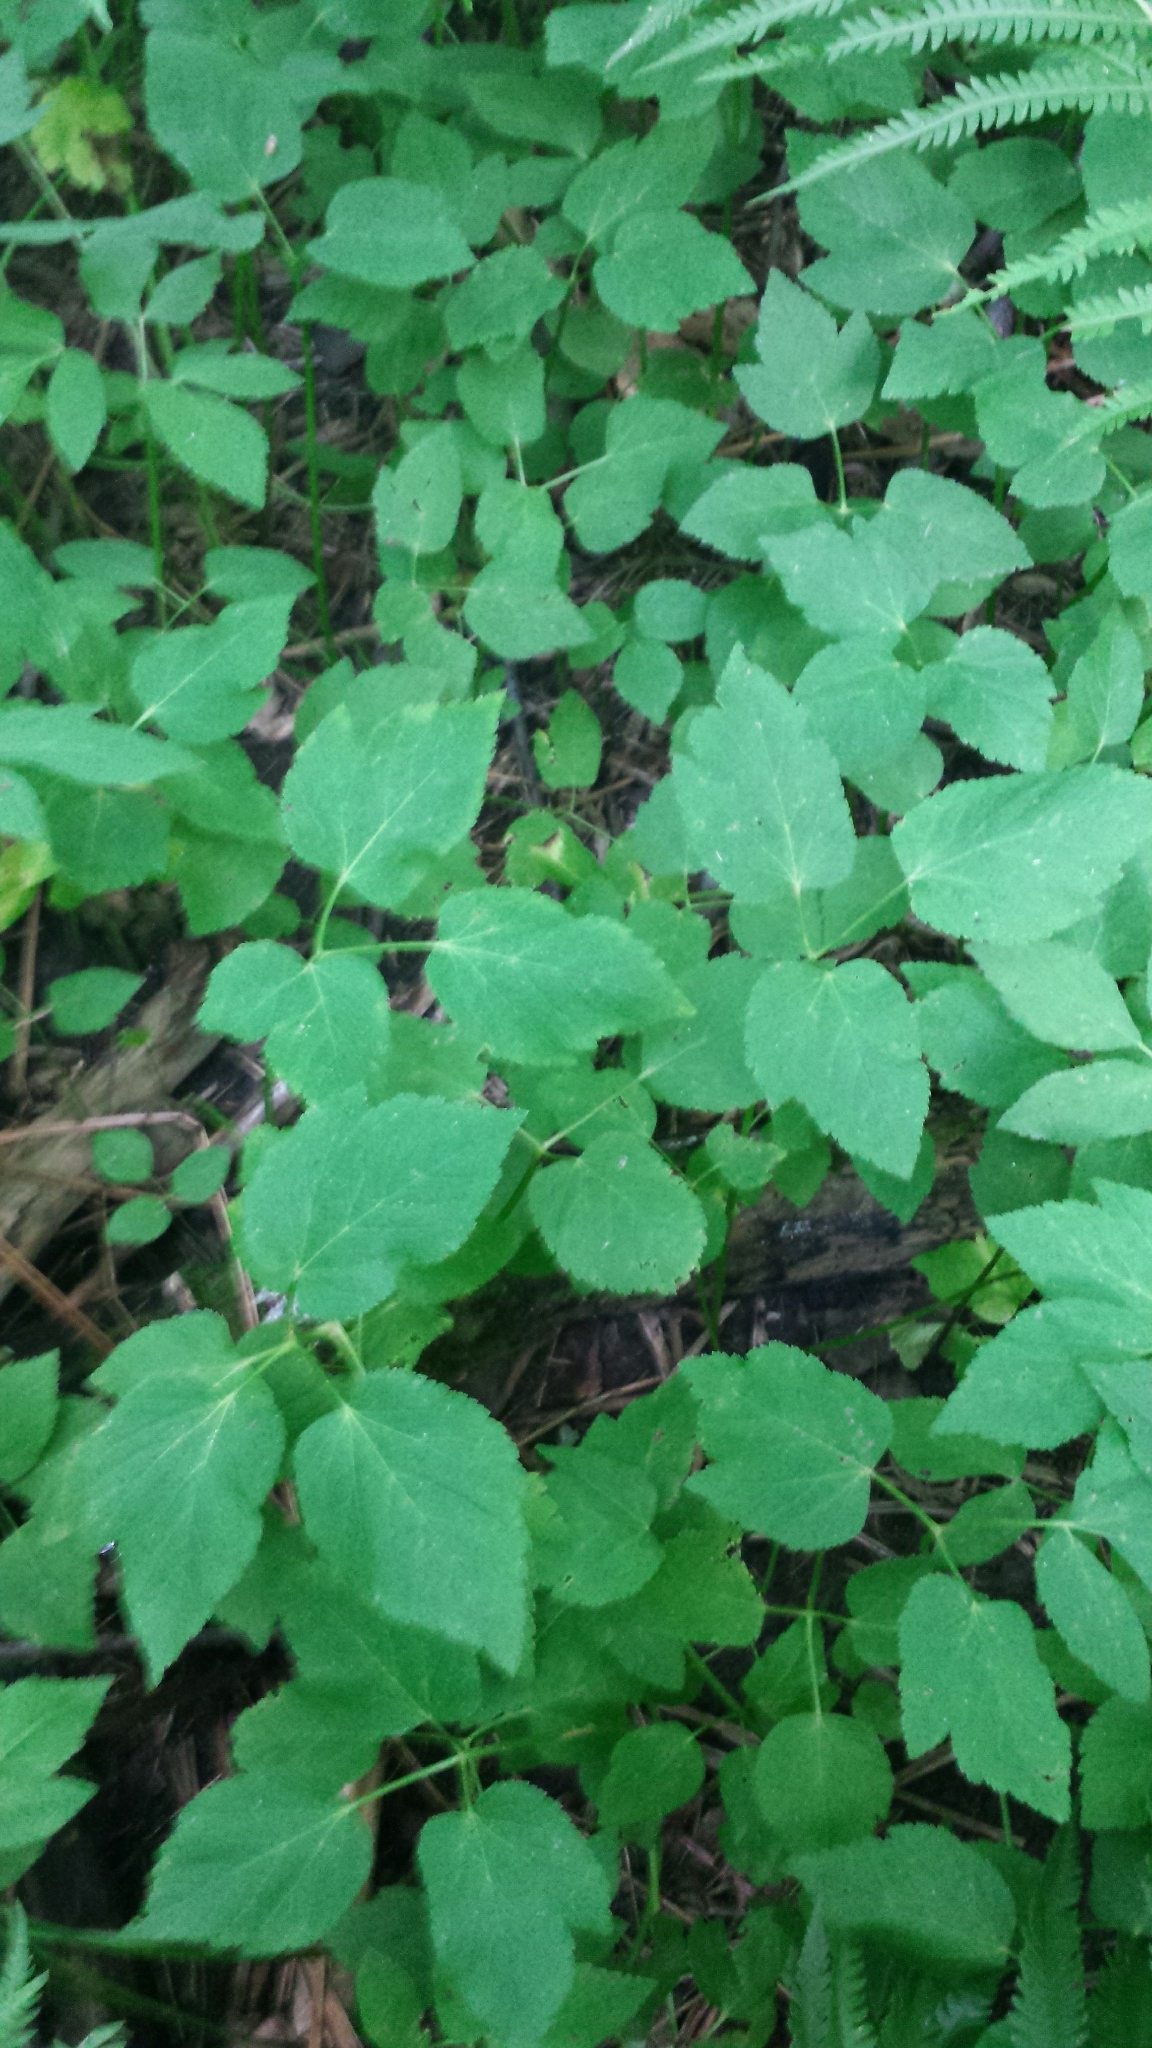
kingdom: Plantae
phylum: Tracheophyta
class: Magnoliopsida
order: Apiales
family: Apiaceae
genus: Aegopodium
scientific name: Aegopodium podagraria
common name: Ground-elder
